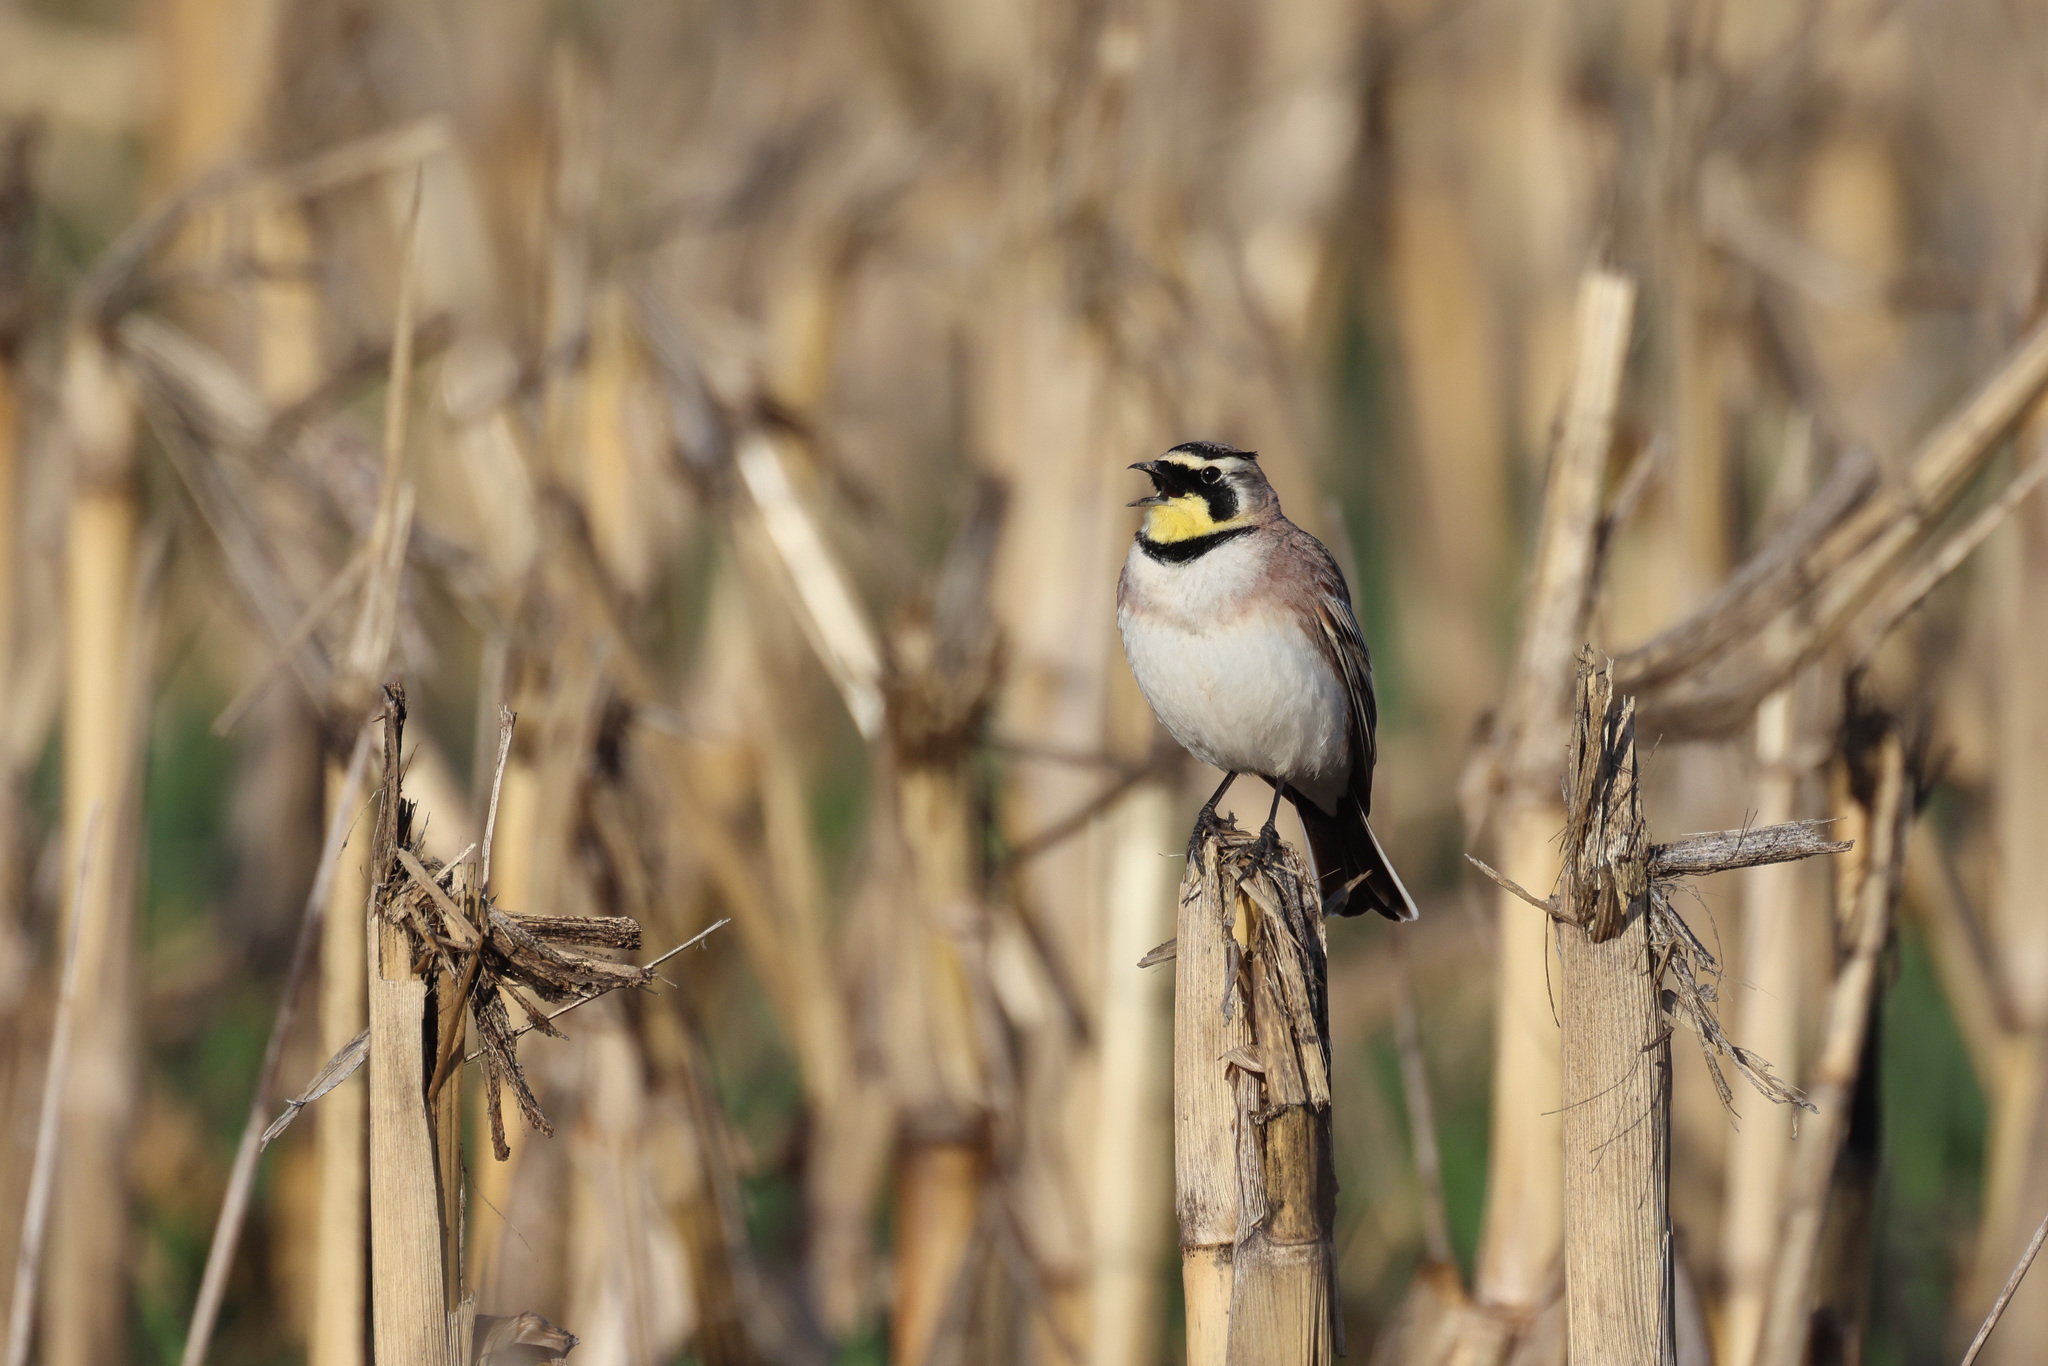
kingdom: Animalia
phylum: Chordata
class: Aves
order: Passeriformes
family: Alaudidae
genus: Eremophila
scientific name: Eremophila alpestris
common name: Horned lark
